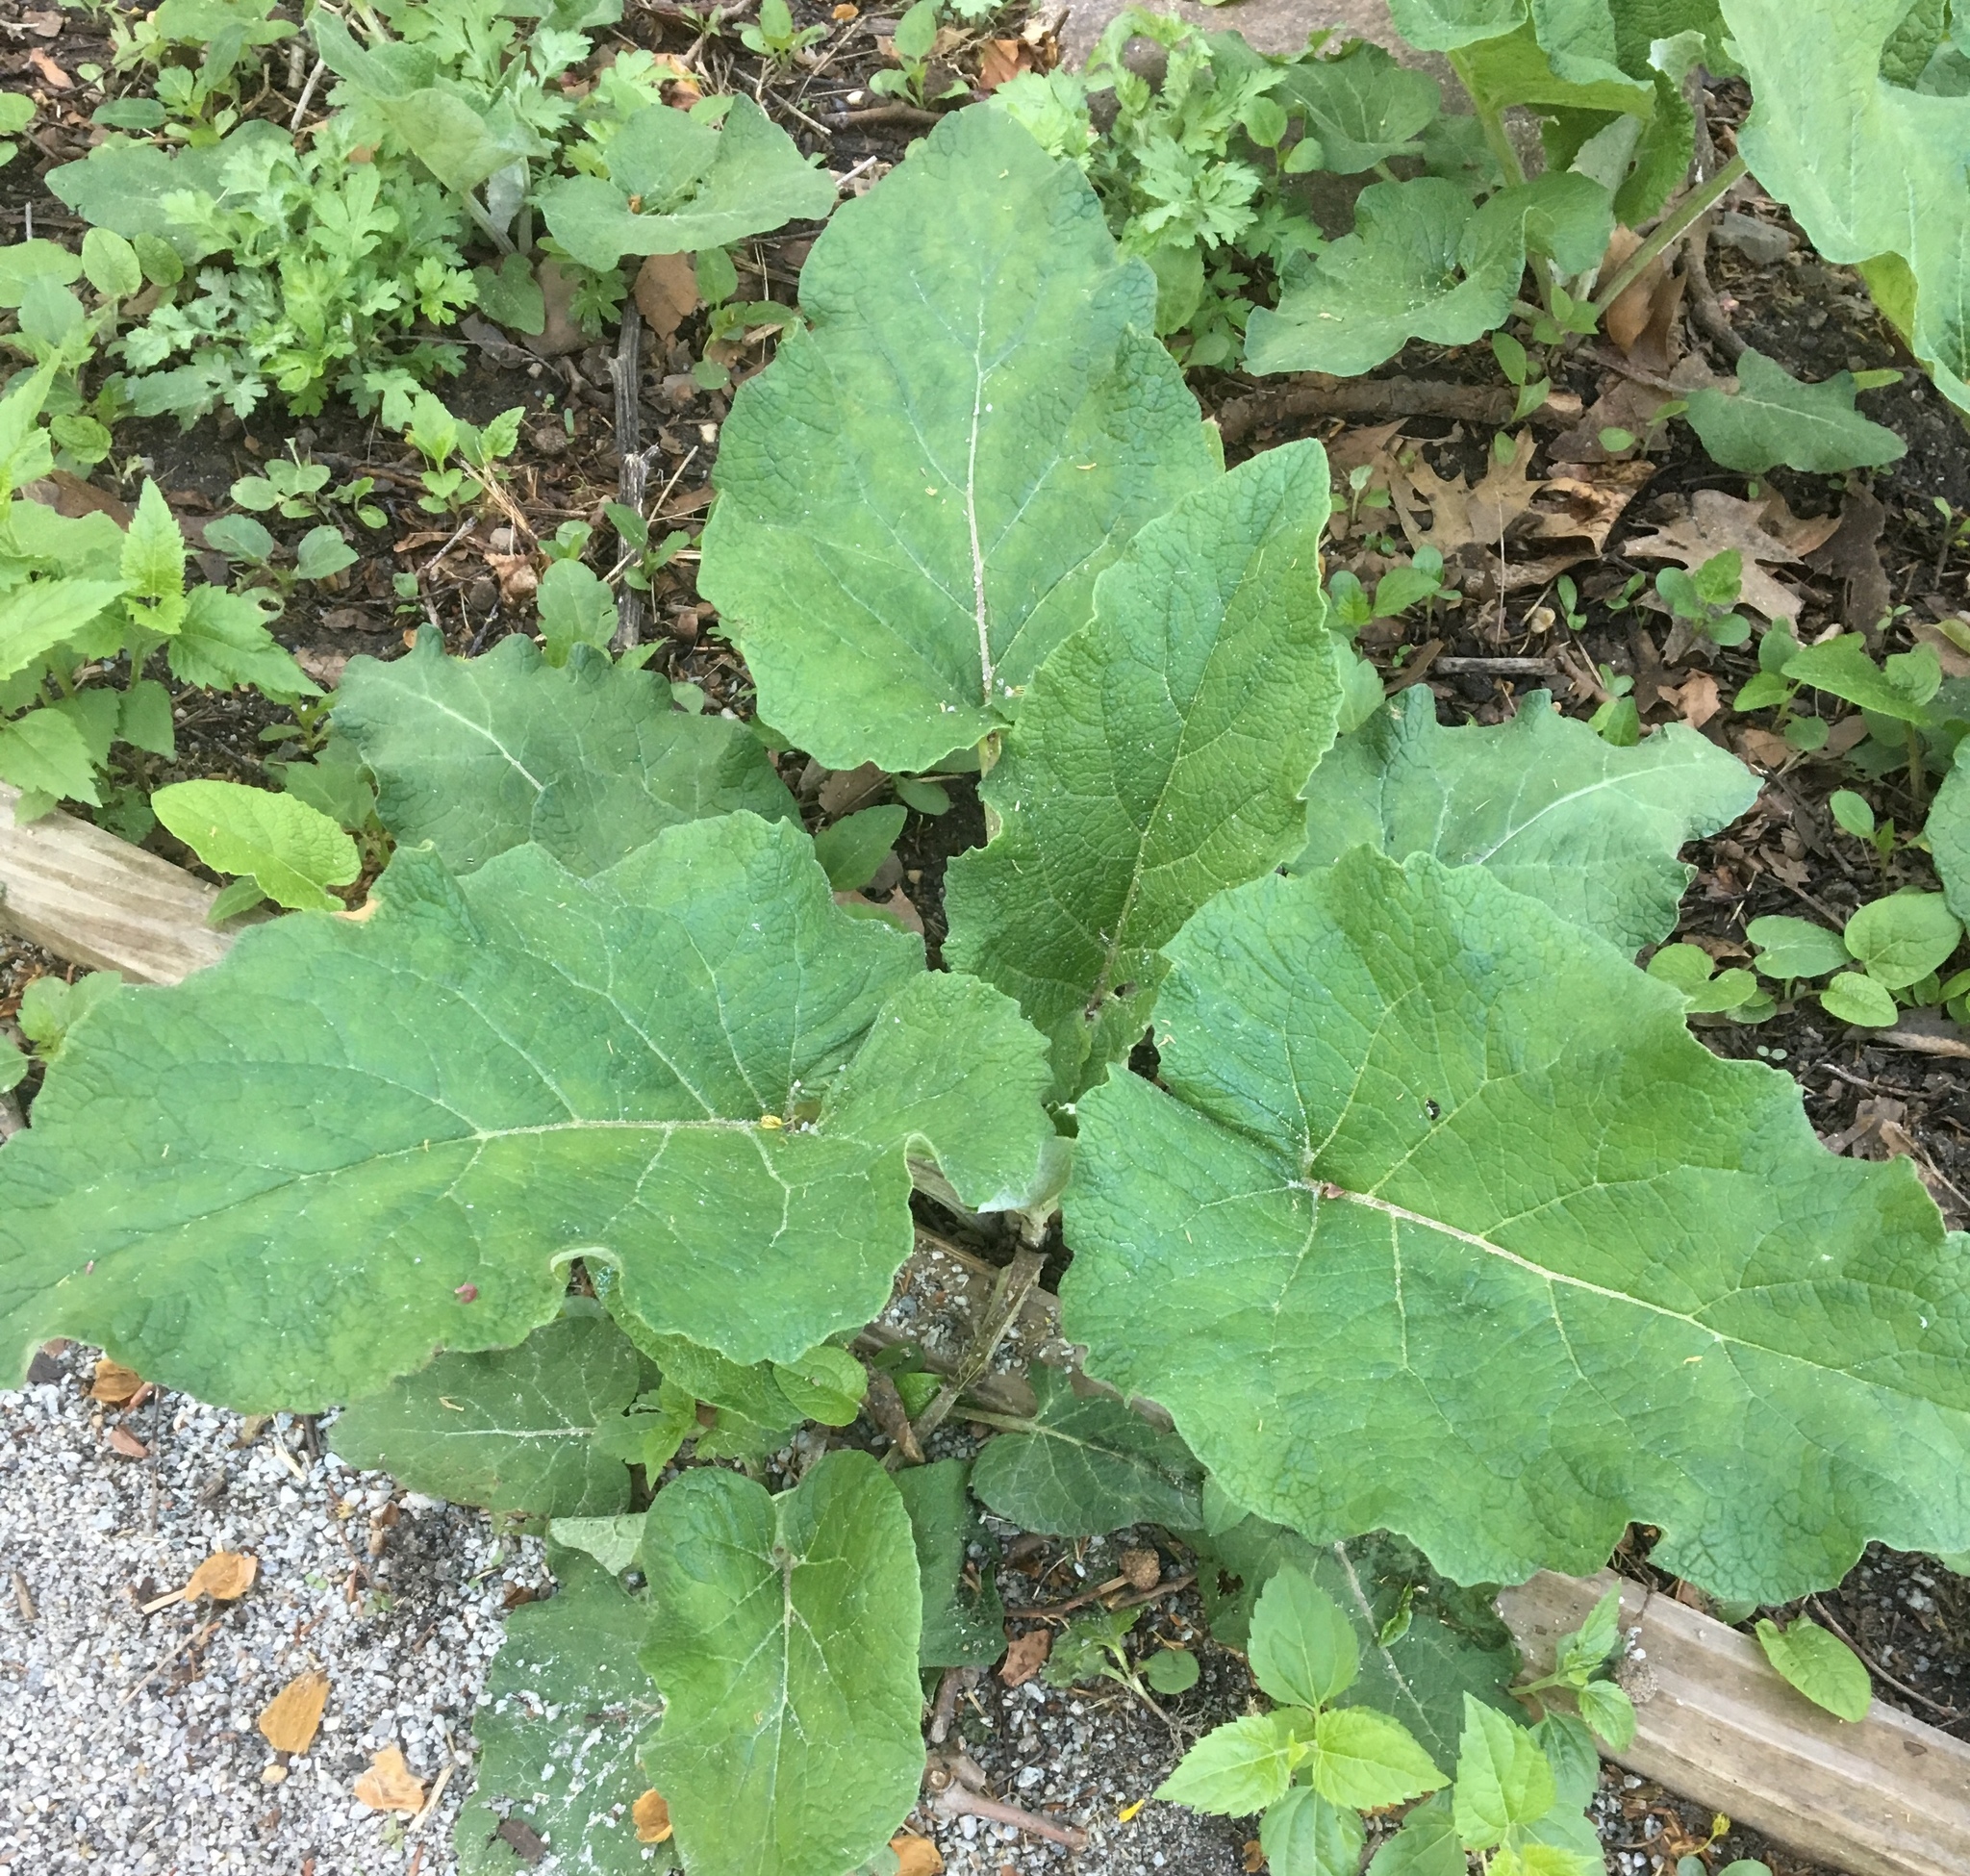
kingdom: Plantae
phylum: Tracheophyta
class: Magnoliopsida
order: Asterales
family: Asteraceae
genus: Arctium
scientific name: Arctium
